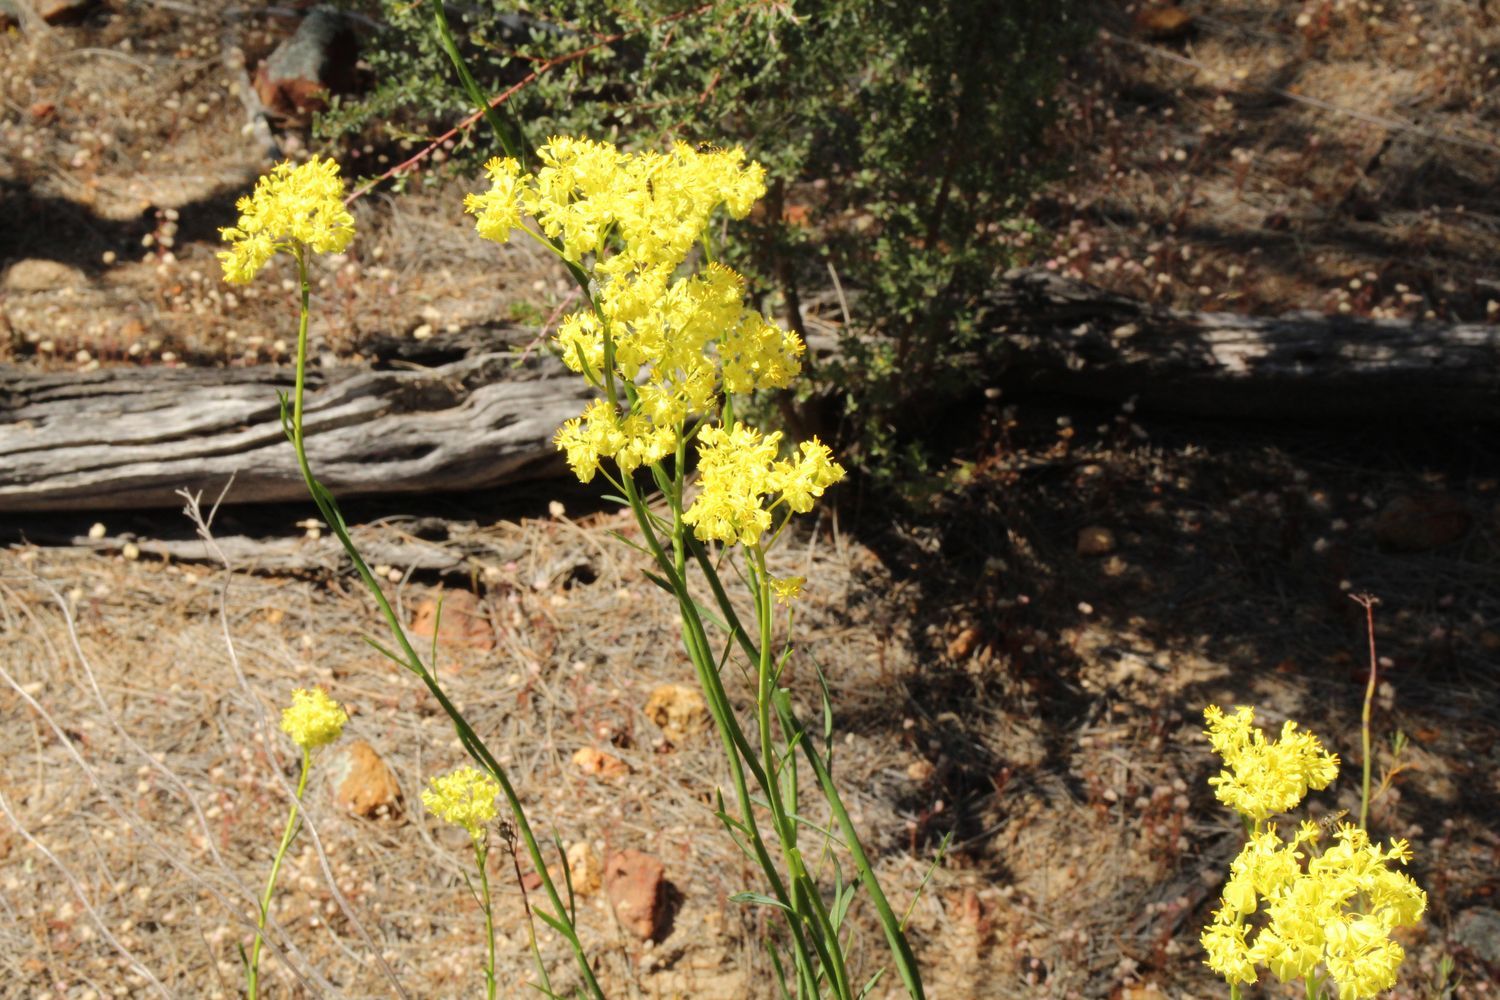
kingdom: Plantae
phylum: Tracheophyta
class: Magnoliopsida
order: Saxifragales
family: Haloragaceae
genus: Glischrocaryon
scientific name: Glischrocaryon aureum
